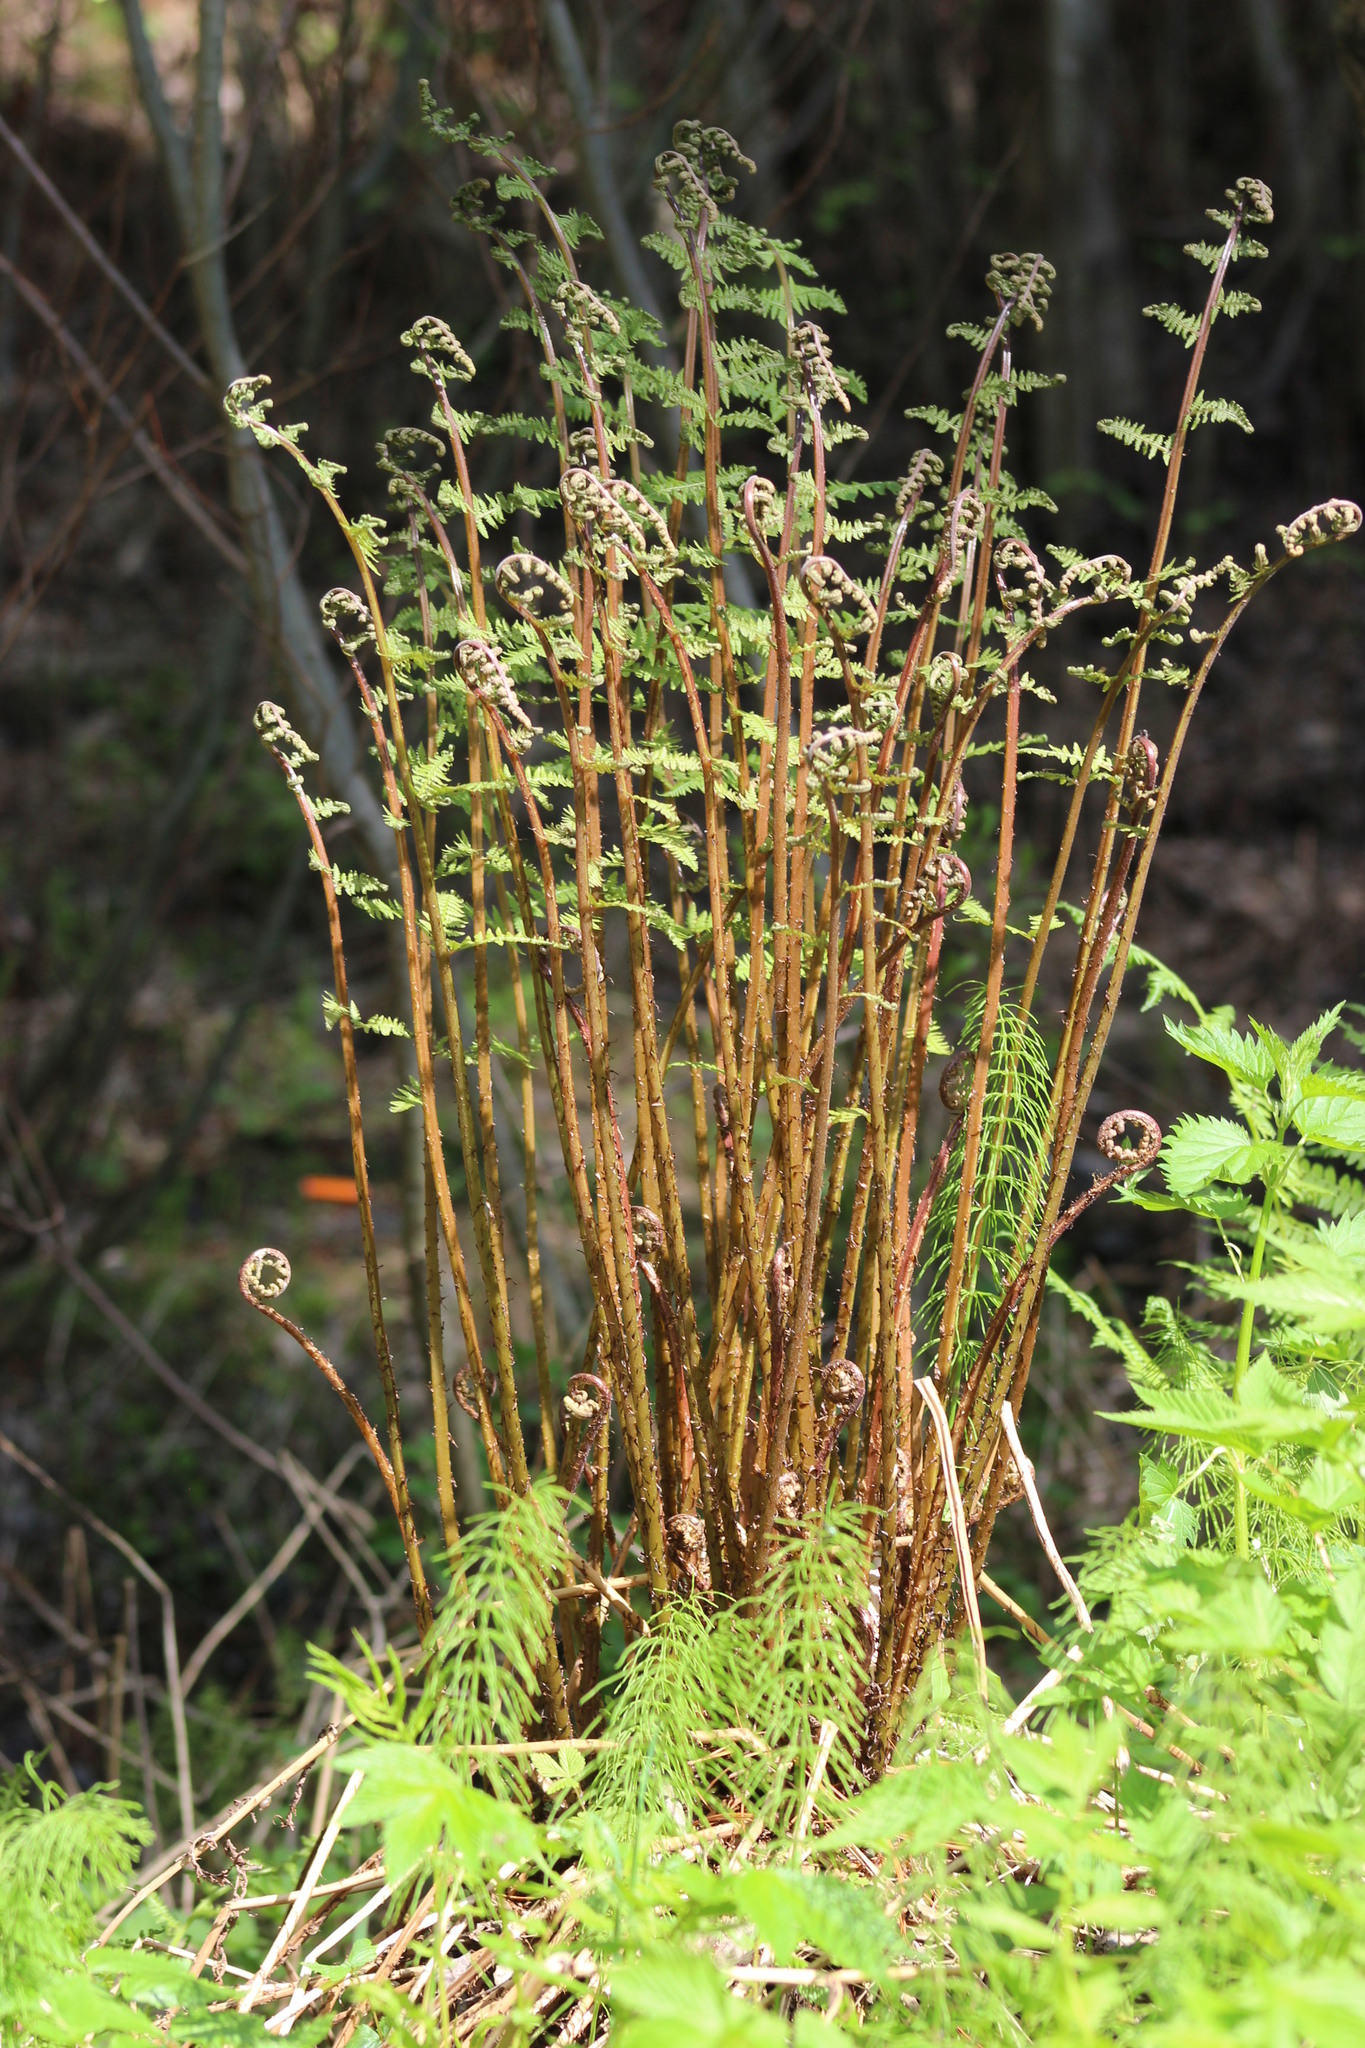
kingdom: Plantae
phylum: Tracheophyta
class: Polypodiopsida
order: Polypodiales
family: Athyriaceae
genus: Athyrium
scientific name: Athyrium filix-femina
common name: Lady fern
